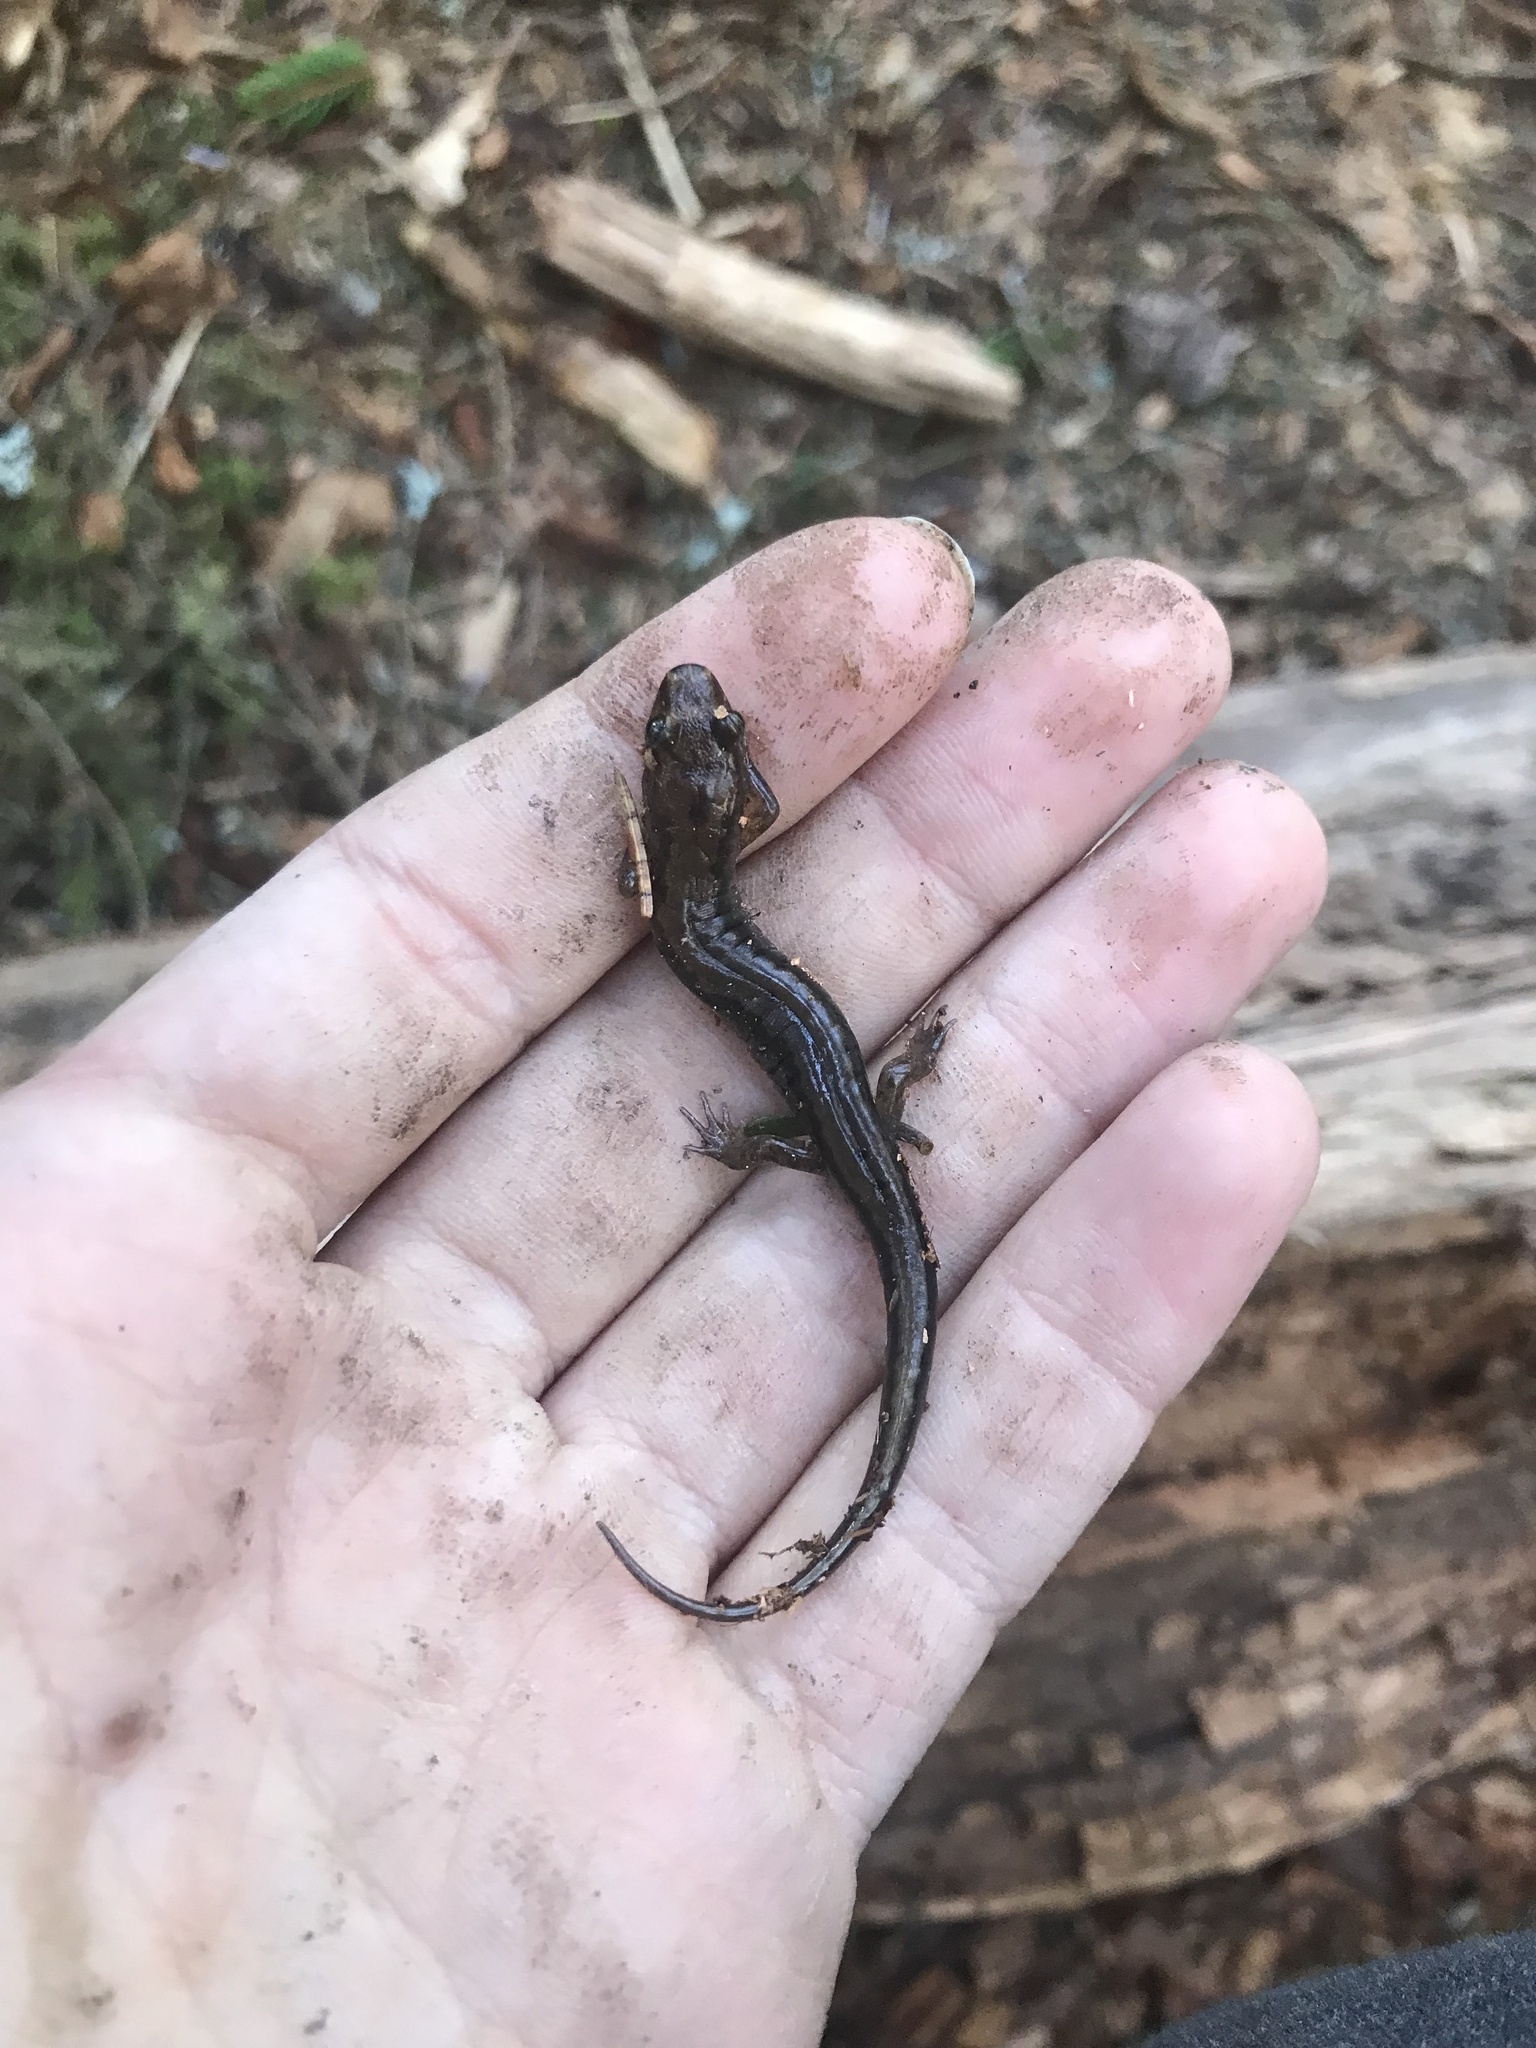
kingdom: Animalia
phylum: Chordata
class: Amphibia
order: Caudata
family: Plethodontidae
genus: Desmognathus
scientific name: Desmognathus adatsihi
